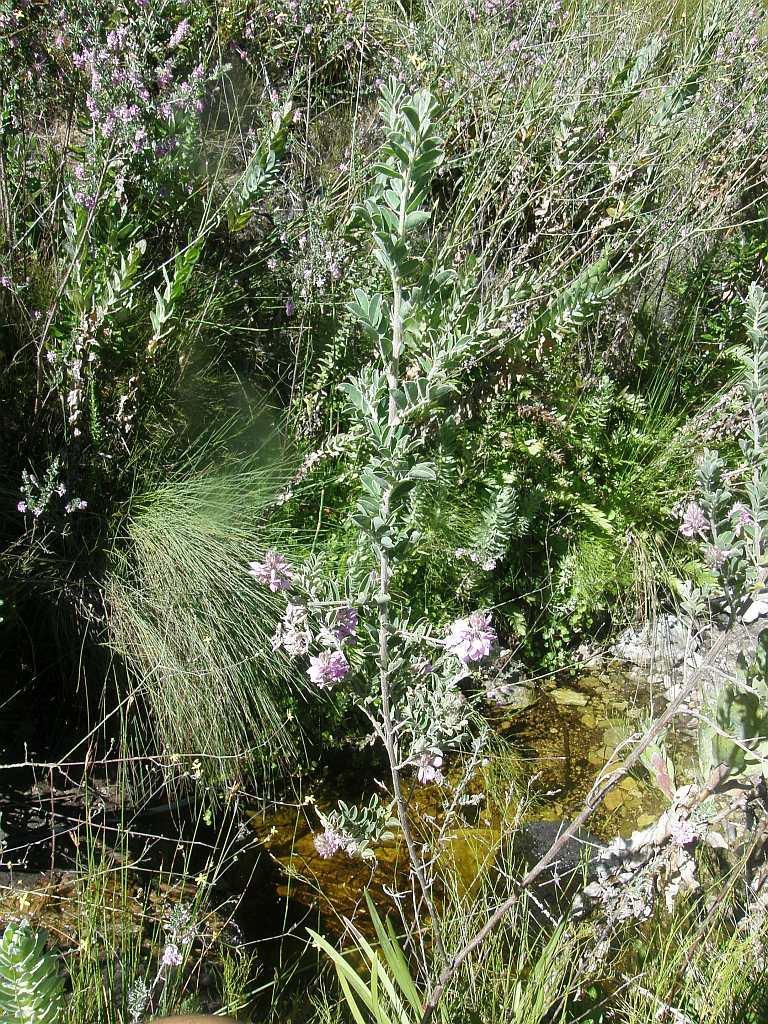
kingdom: Plantae
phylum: Tracheophyta
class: Magnoliopsida
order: Fabales
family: Fabaceae
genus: Indigofera
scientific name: Indigofera superba
